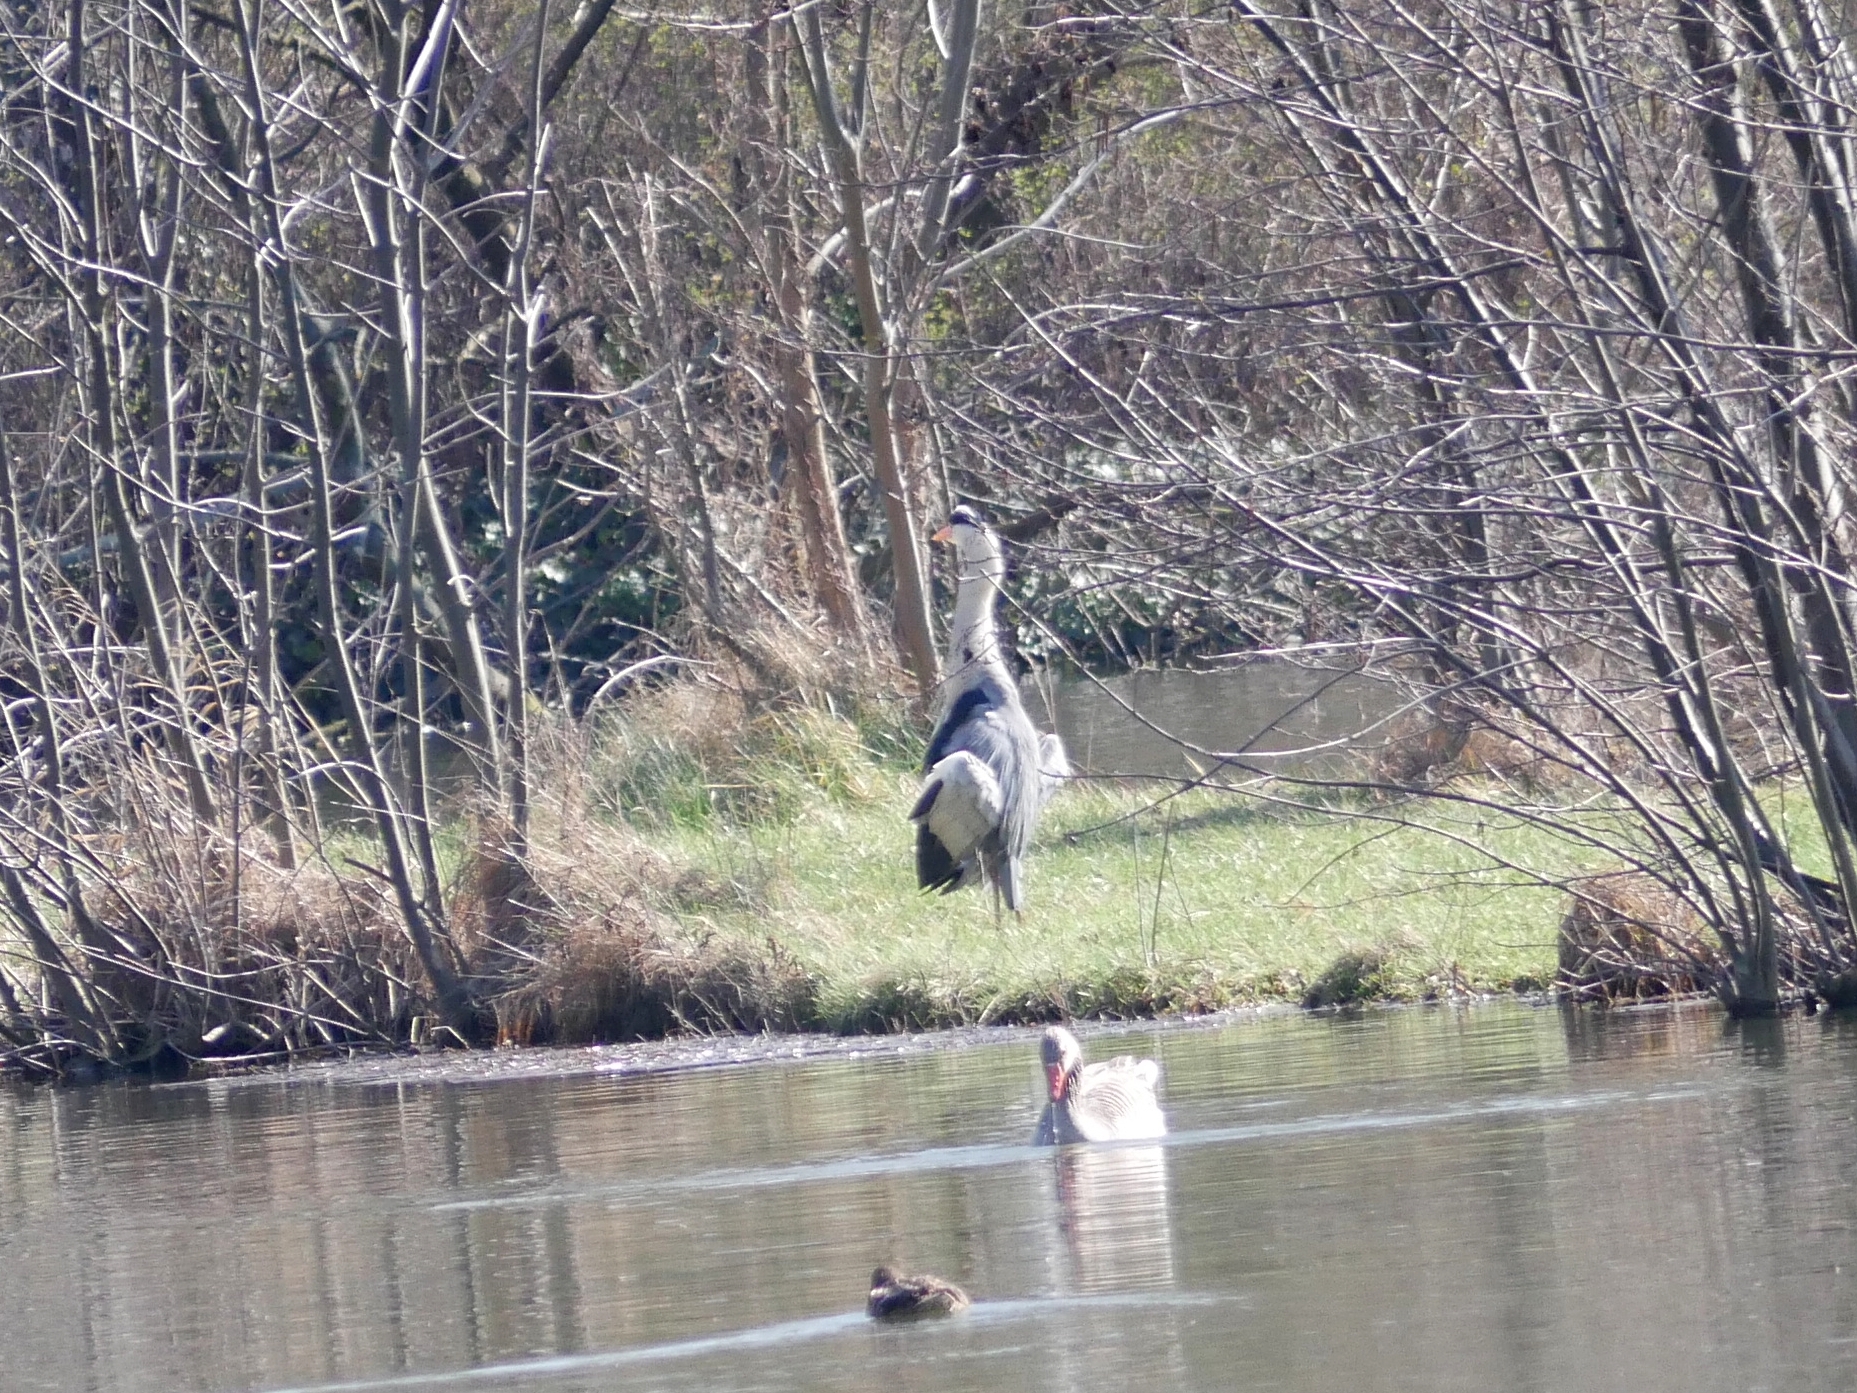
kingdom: Animalia
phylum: Chordata
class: Aves
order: Pelecaniformes
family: Ardeidae
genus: Ardea
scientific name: Ardea cinerea
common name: Grey heron
